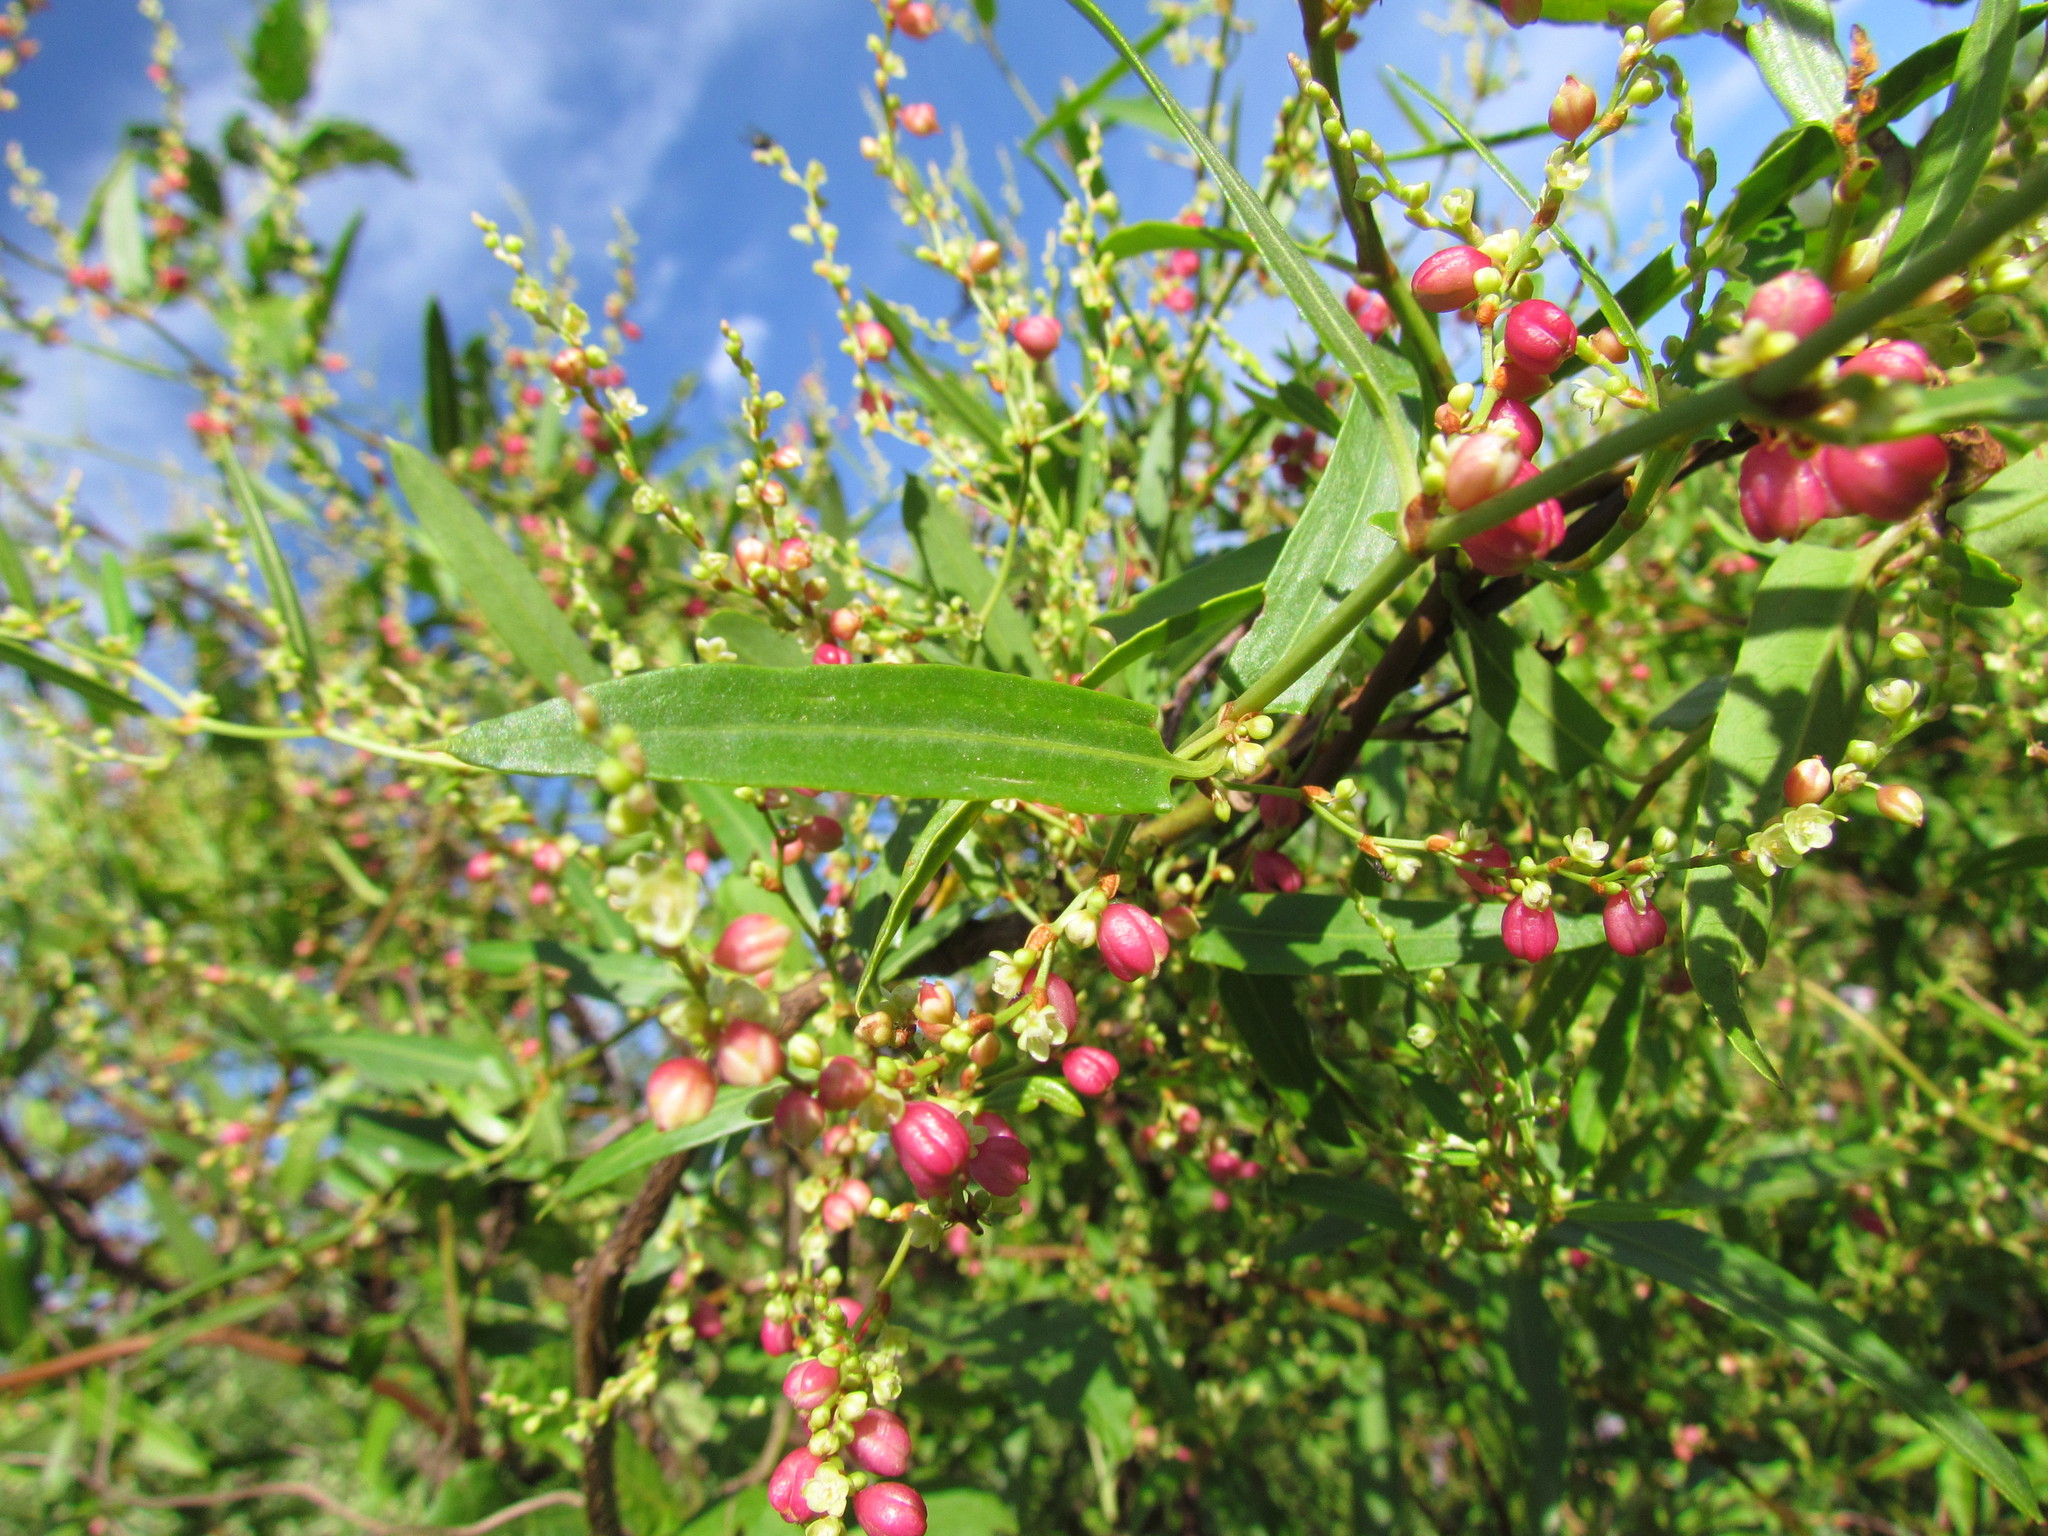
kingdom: Plantae
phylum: Tracheophyta
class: Magnoliopsida
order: Caryophyllales
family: Polygonaceae
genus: Muehlenbeckia
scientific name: Muehlenbeckia sagittifolia
